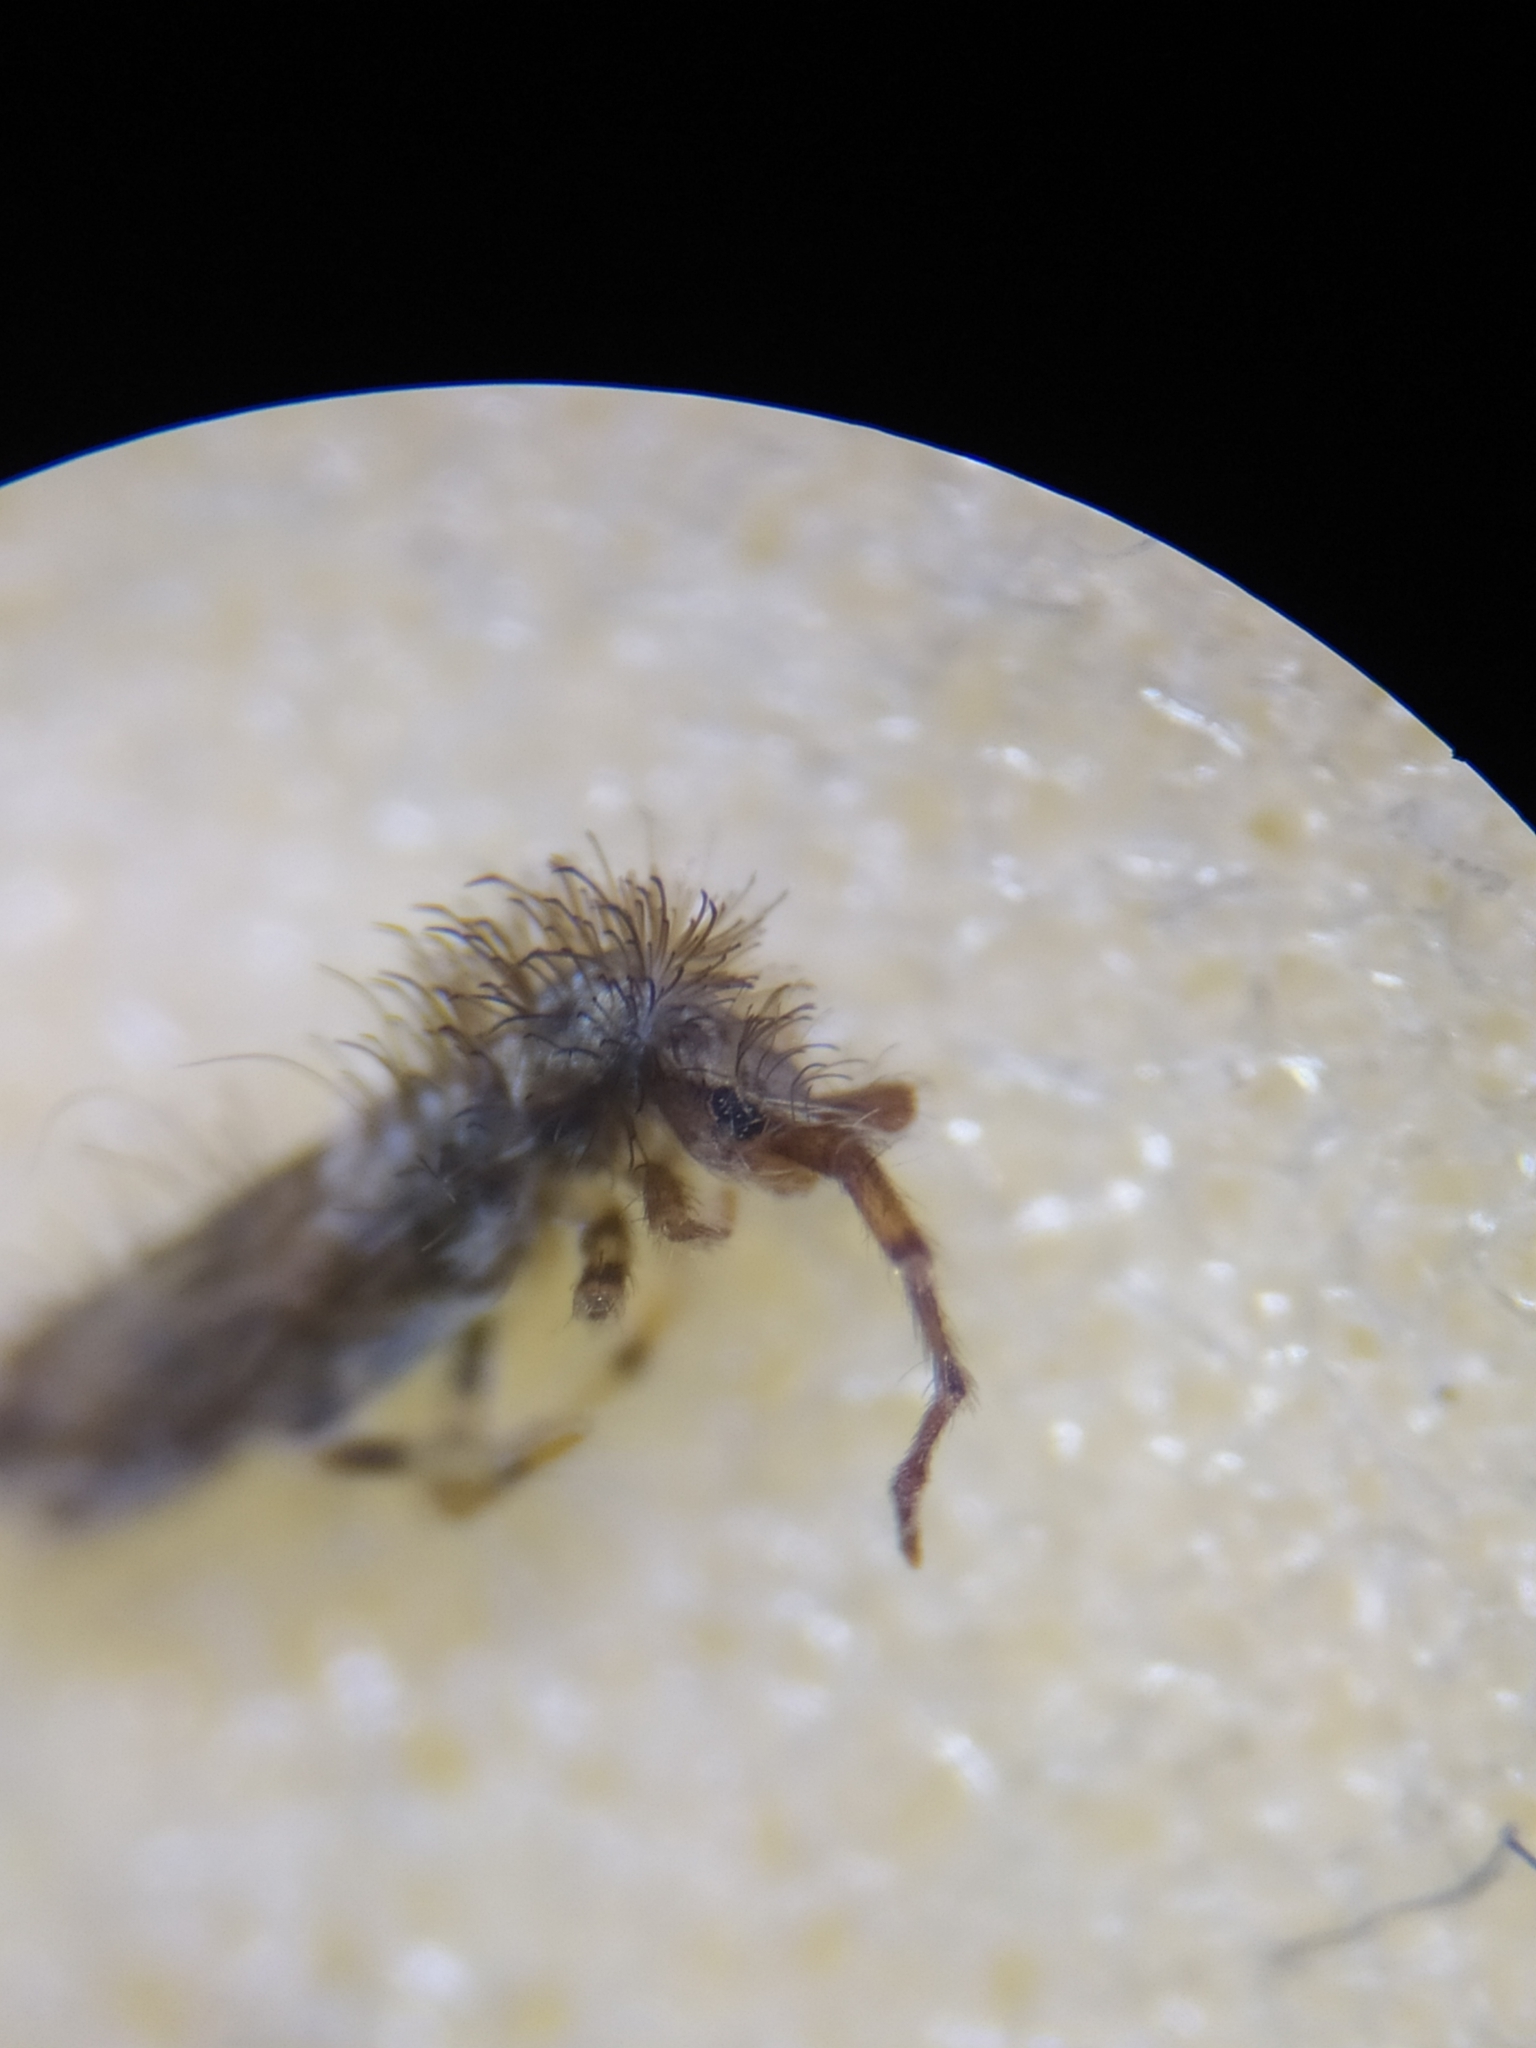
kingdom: Animalia
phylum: Arthropoda
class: Collembola
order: Entomobryomorpha
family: Entomobryidae
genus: Entomobrya
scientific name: Entomobrya dorsalis
